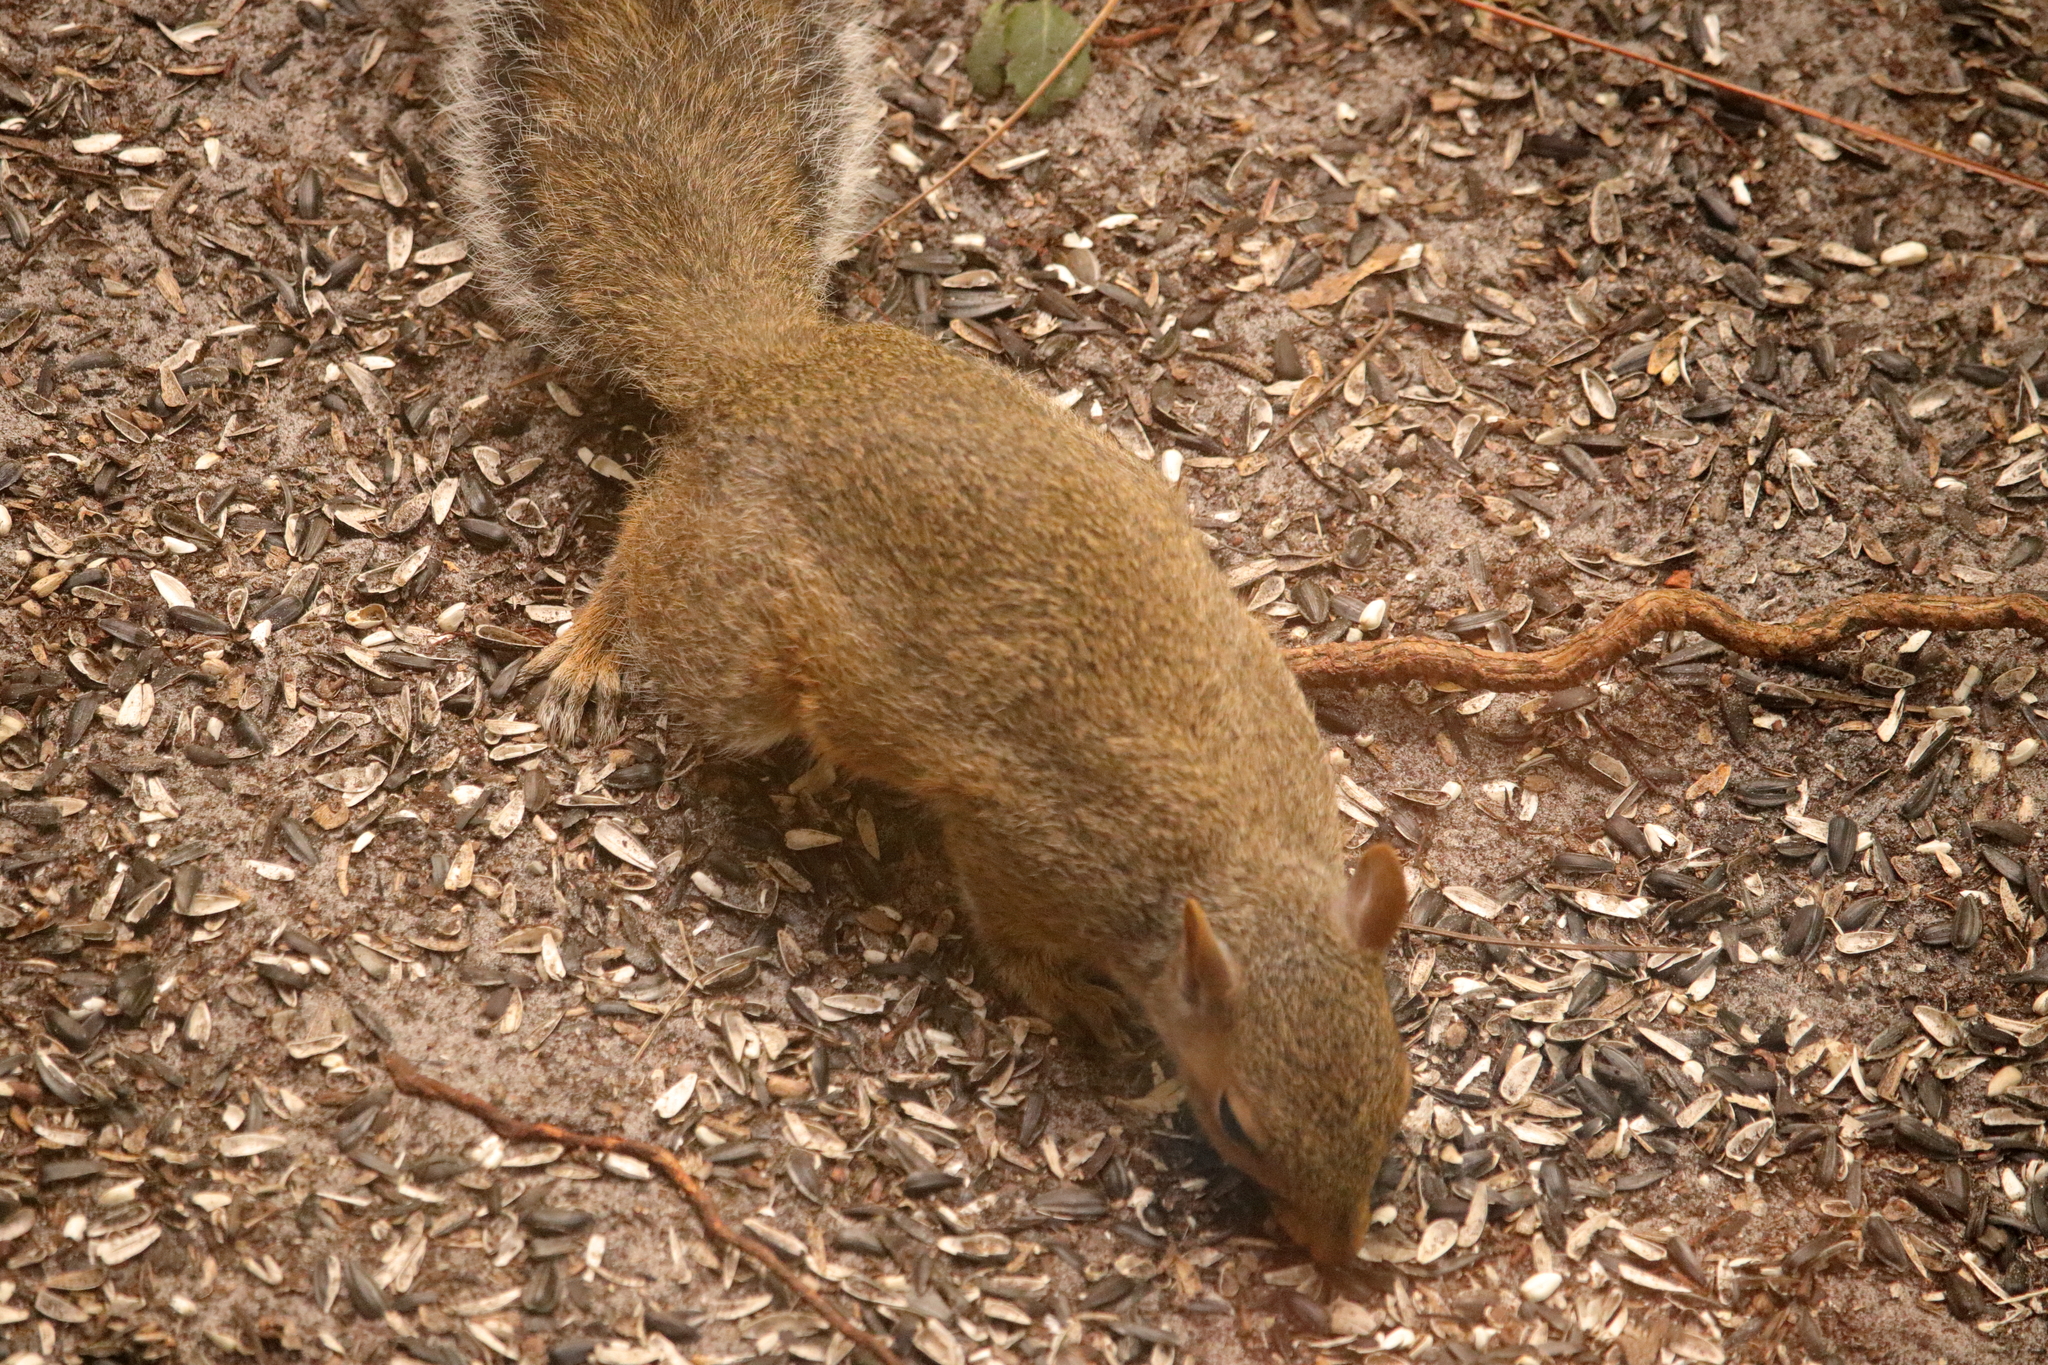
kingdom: Animalia
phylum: Chordata
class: Mammalia
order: Rodentia
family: Sciuridae
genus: Sciurus
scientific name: Sciurus carolinensis
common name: Eastern gray squirrel
